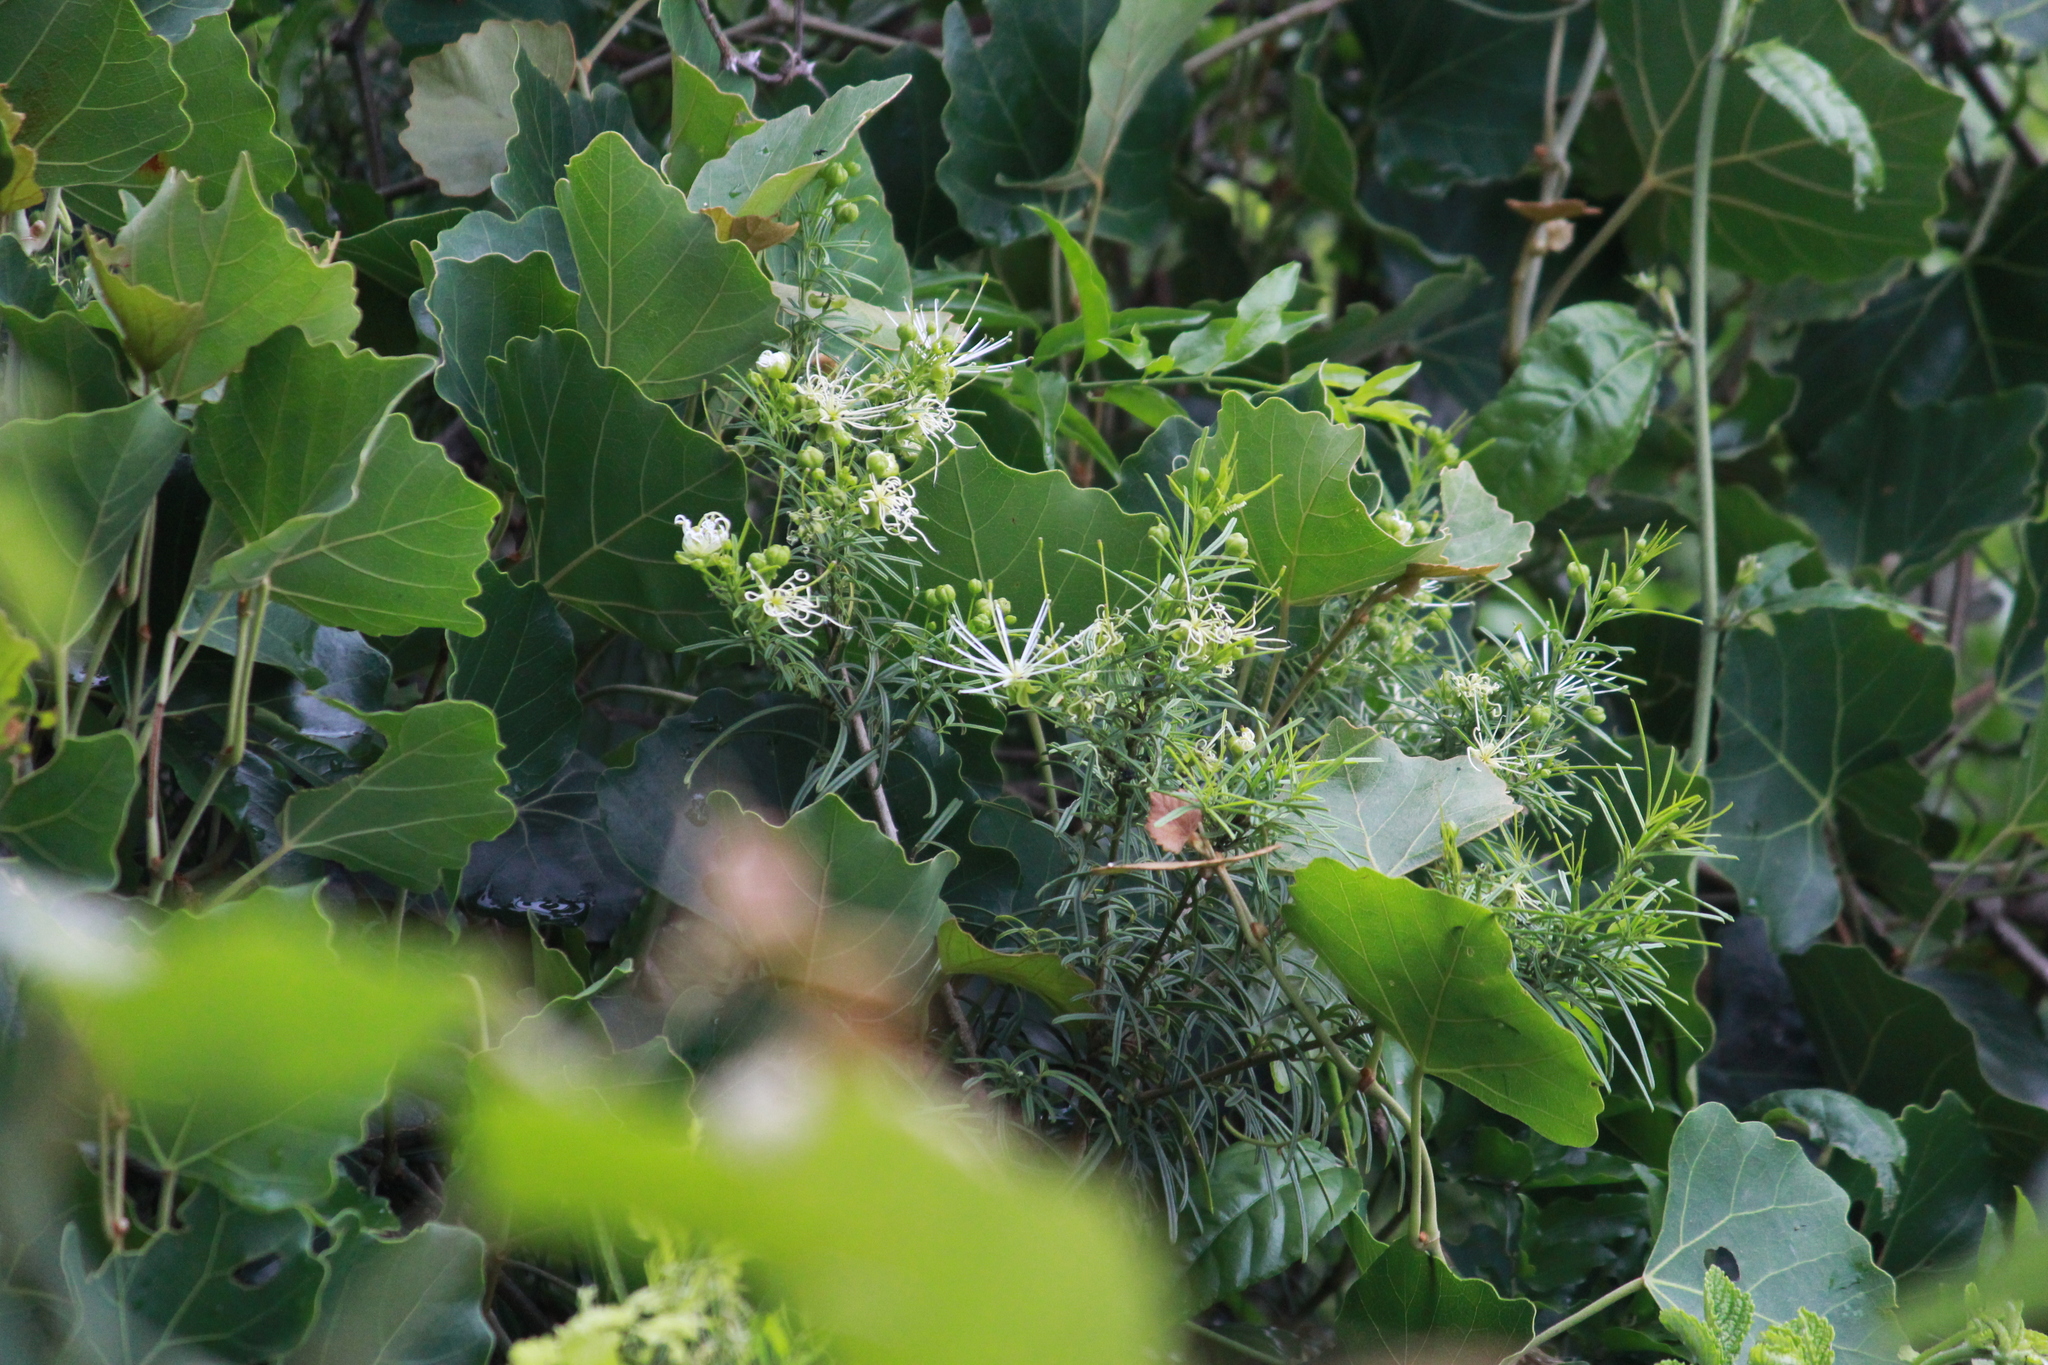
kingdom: Plantae
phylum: Tracheophyta
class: Magnoliopsida
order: Brassicales
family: Capparaceae
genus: Maerua
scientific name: Maerua rosmarinoides
